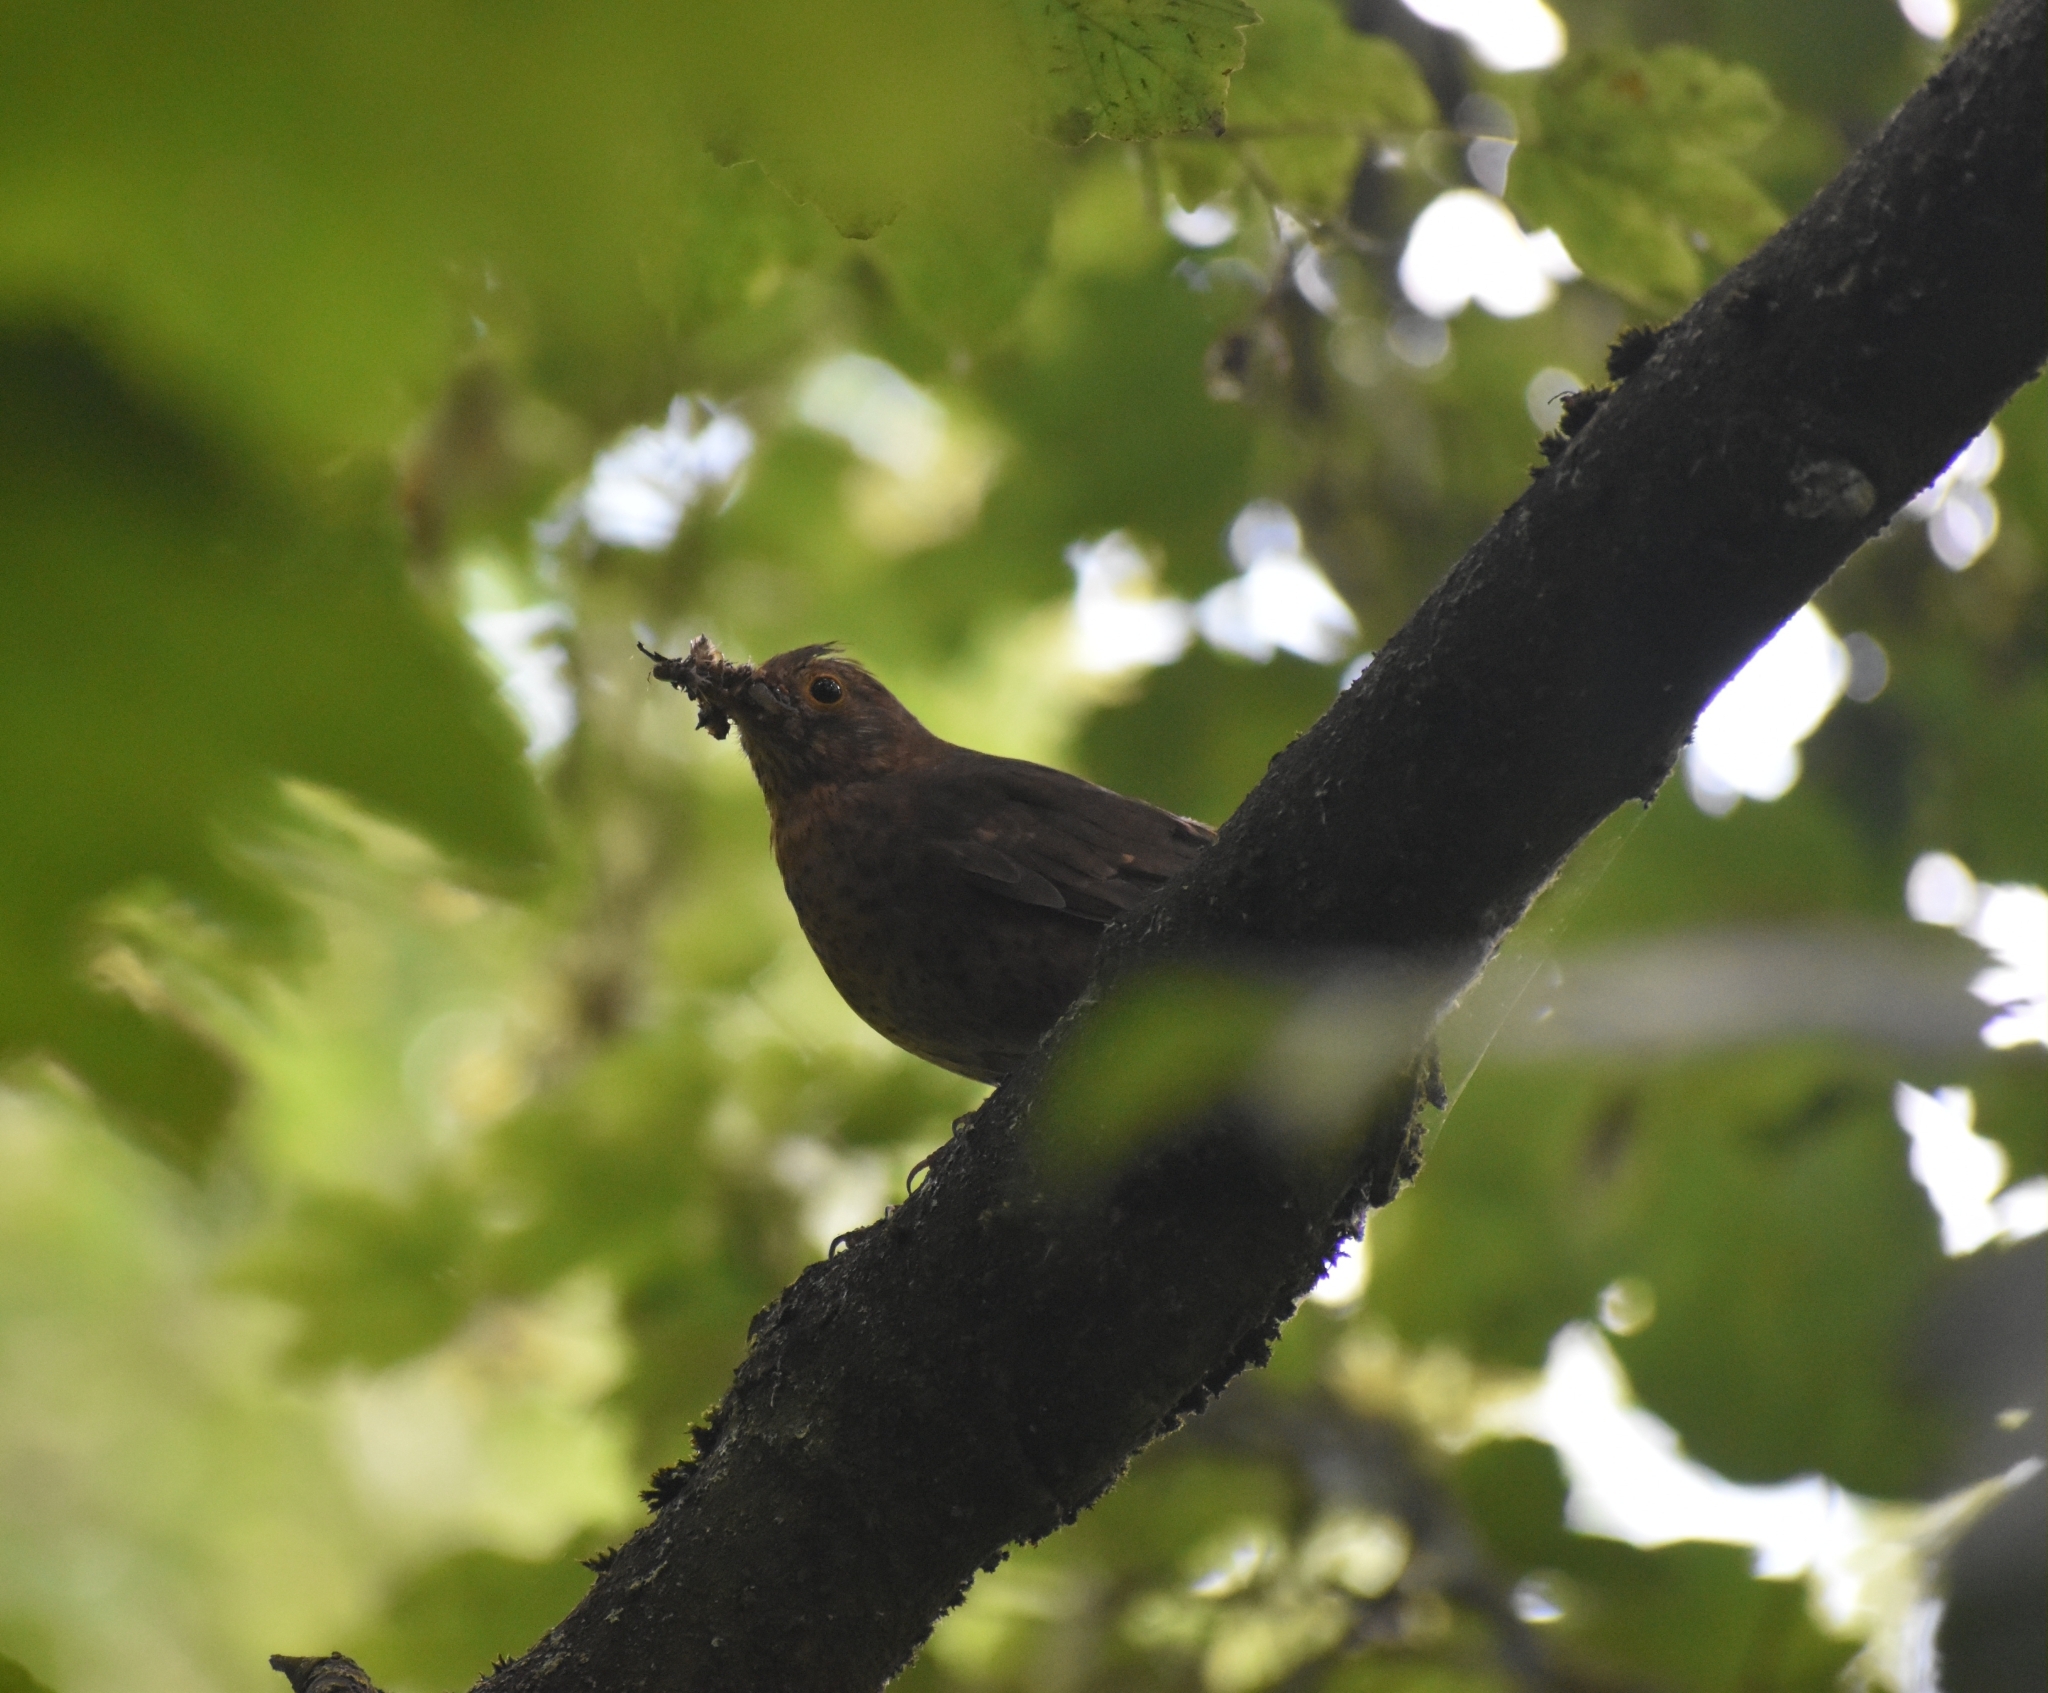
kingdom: Animalia
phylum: Chordata
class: Aves
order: Passeriformes
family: Turdidae
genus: Turdus
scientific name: Turdus merula
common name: Common blackbird
